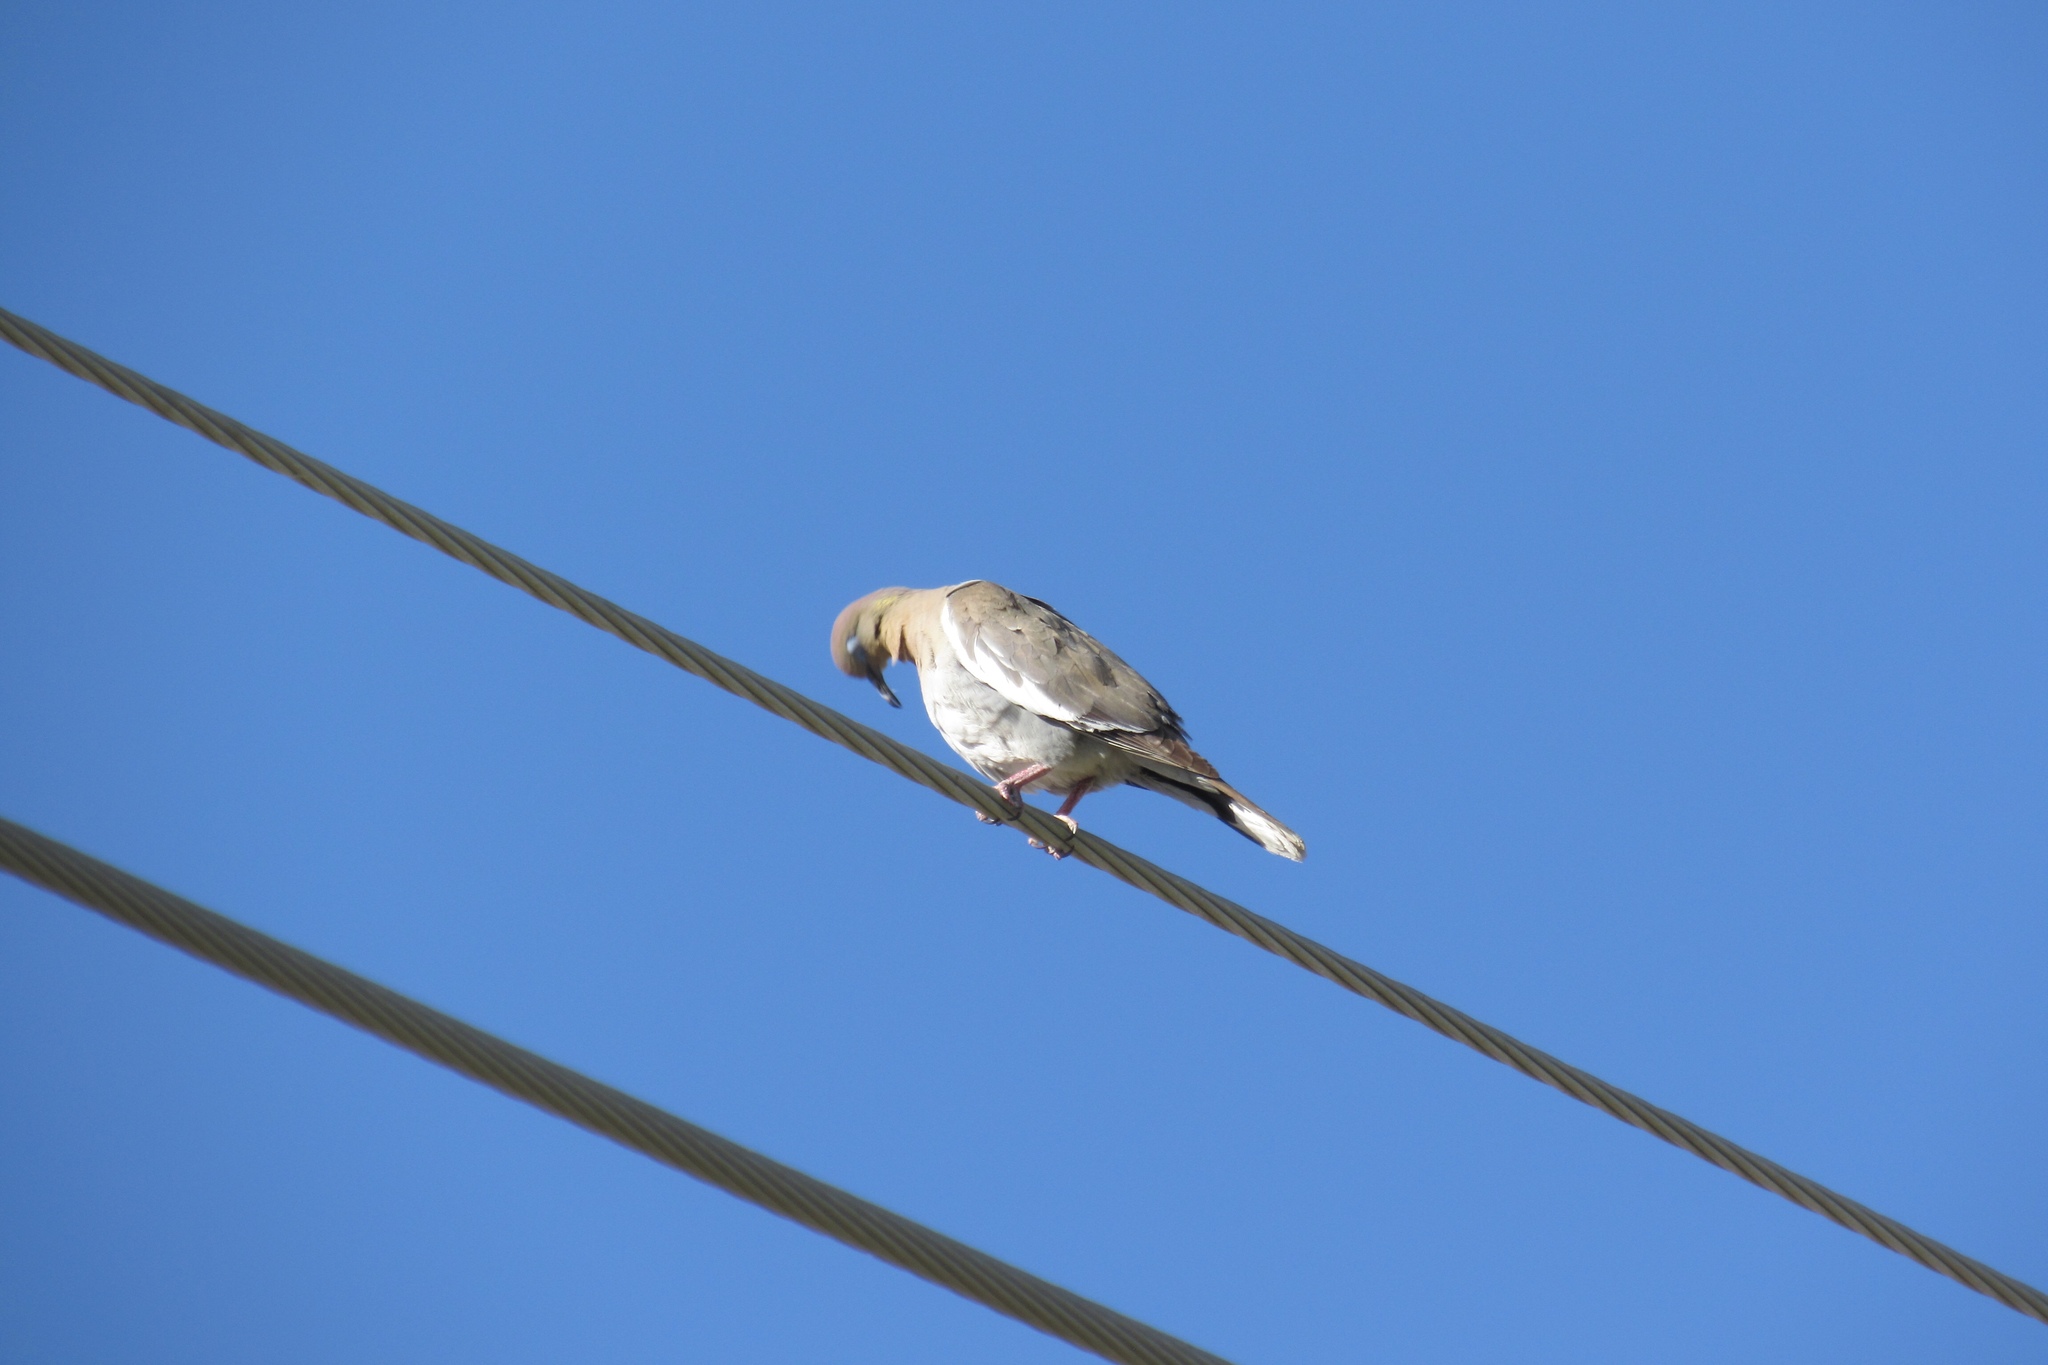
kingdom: Animalia
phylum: Chordata
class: Aves
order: Columbiformes
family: Columbidae
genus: Zenaida
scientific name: Zenaida asiatica
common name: White-winged dove
